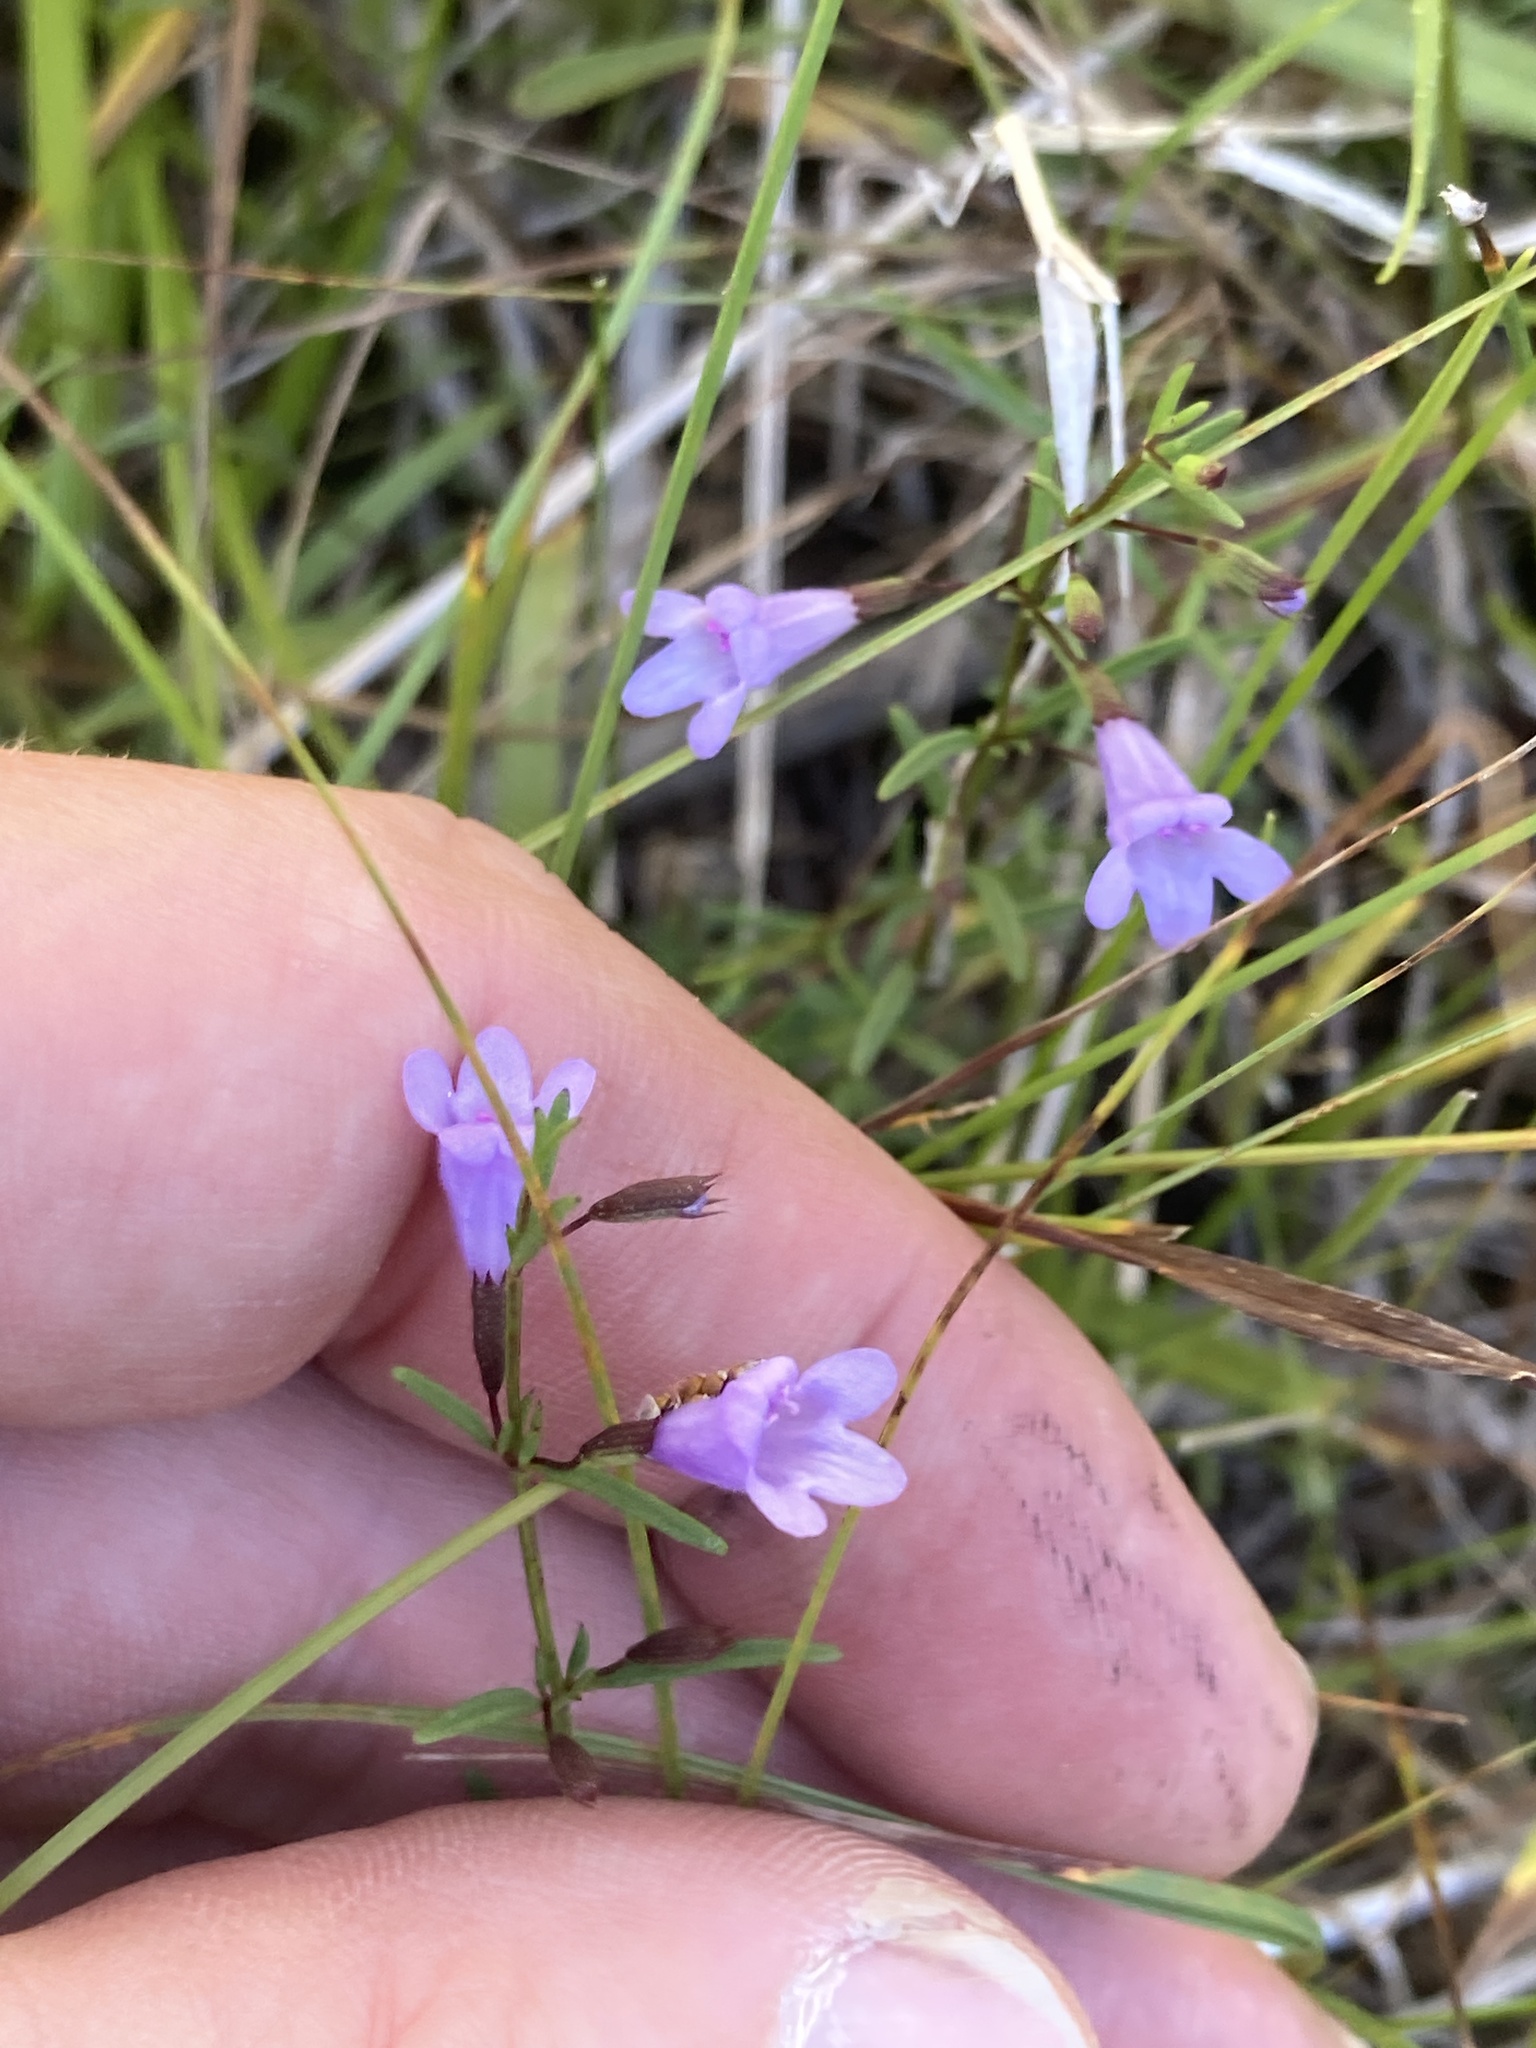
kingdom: Plantae
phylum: Tracheophyta
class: Magnoliopsida
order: Lamiales
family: Lamiaceae
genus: Clinopodium
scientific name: Clinopodium arkansanum
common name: Limestone calamint
